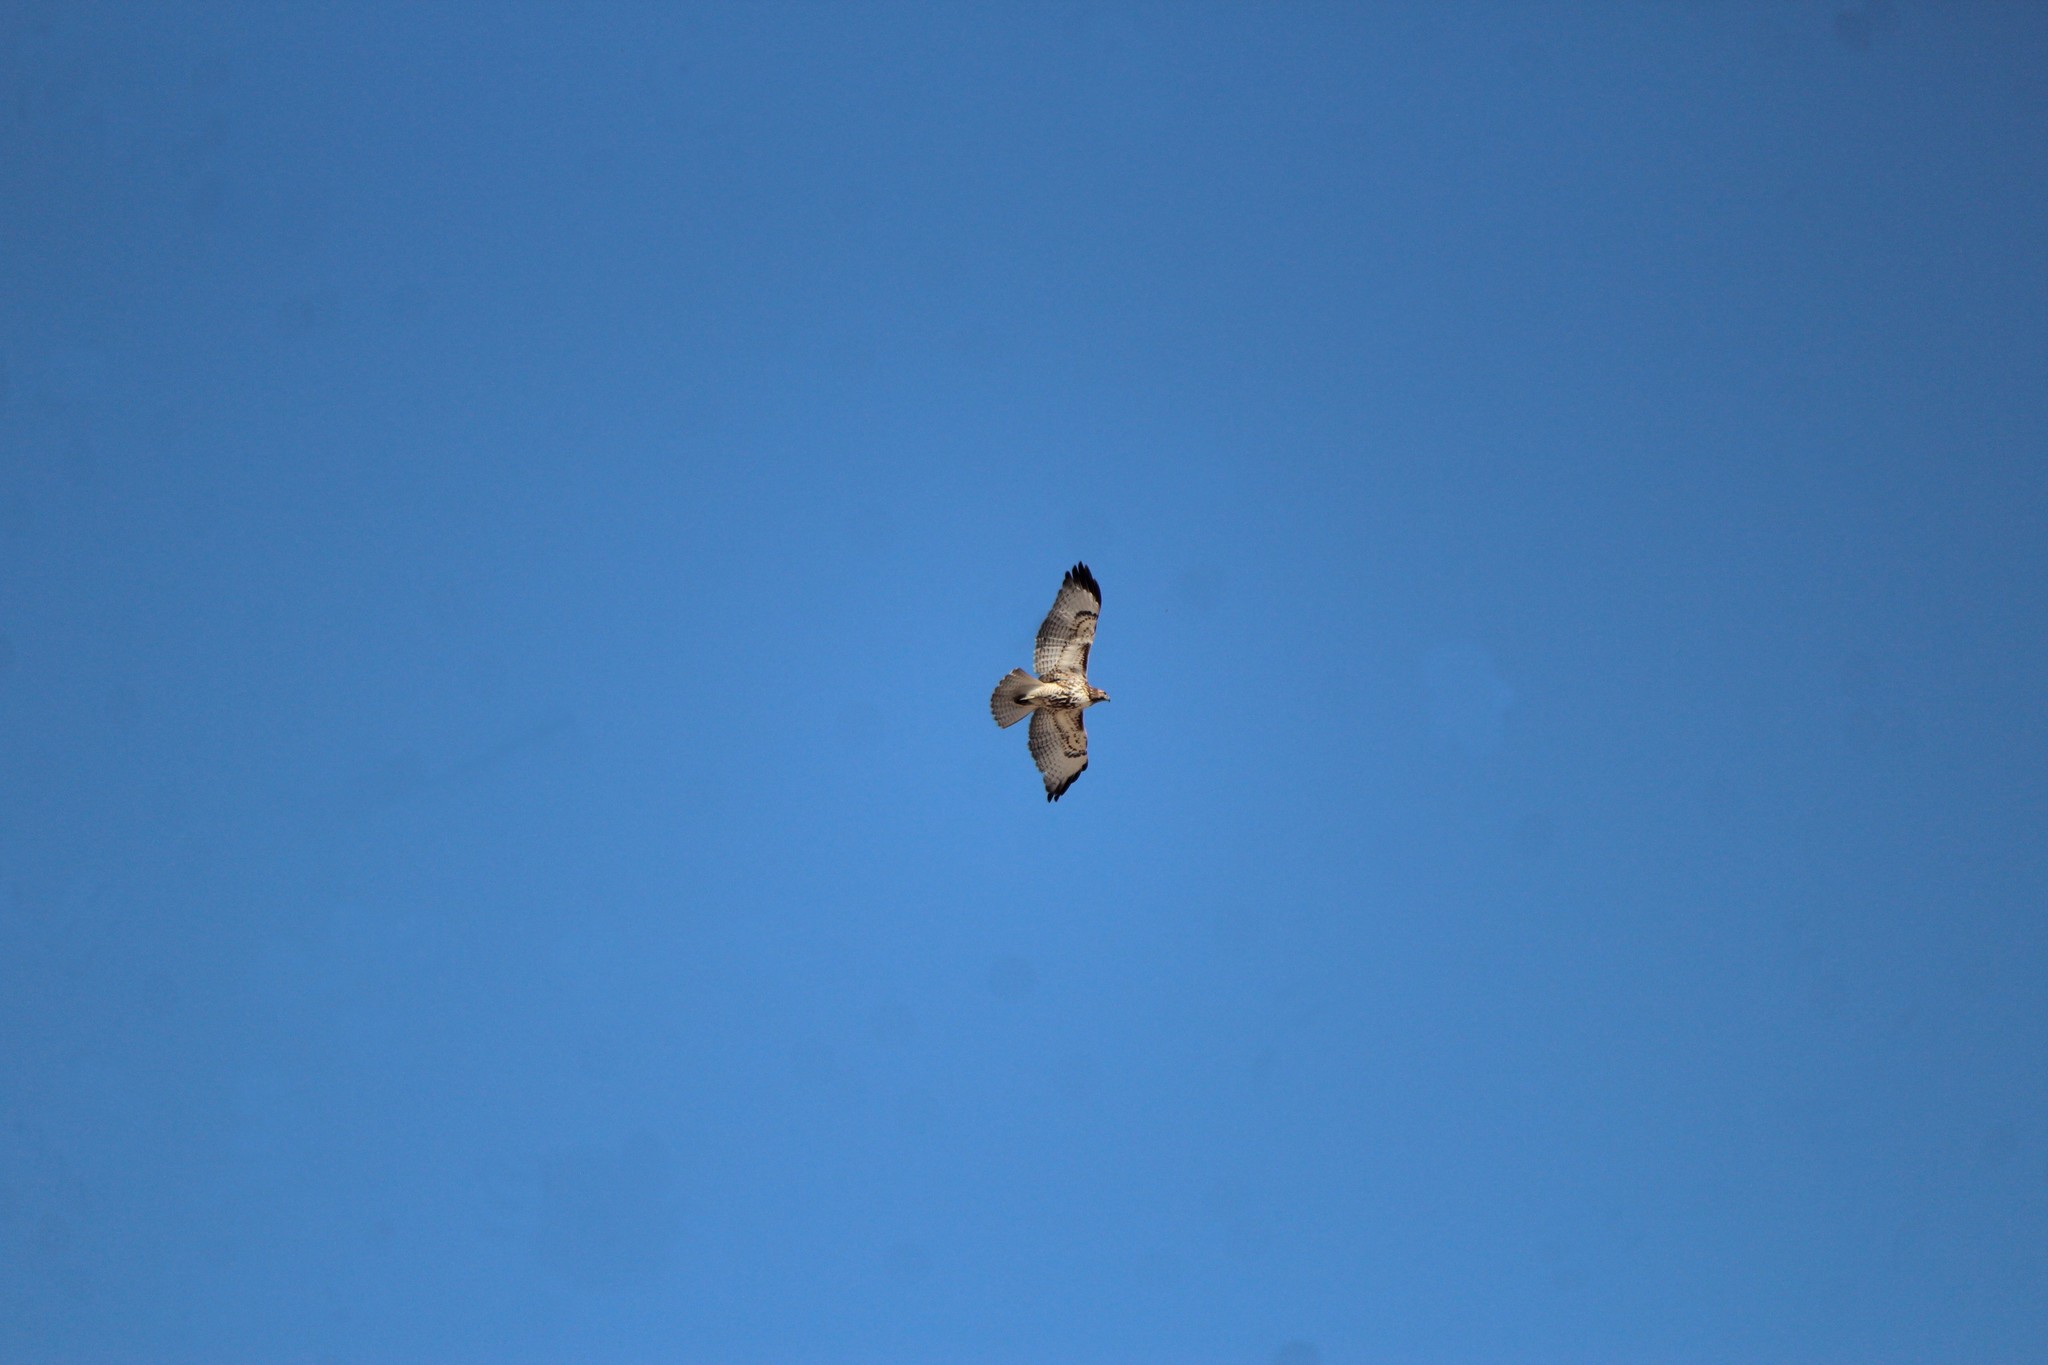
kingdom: Animalia
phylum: Chordata
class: Aves
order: Accipitriformes
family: Accipitridae
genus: Buteo
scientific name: Buteo jamaicensis
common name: Red-tailed hawk
